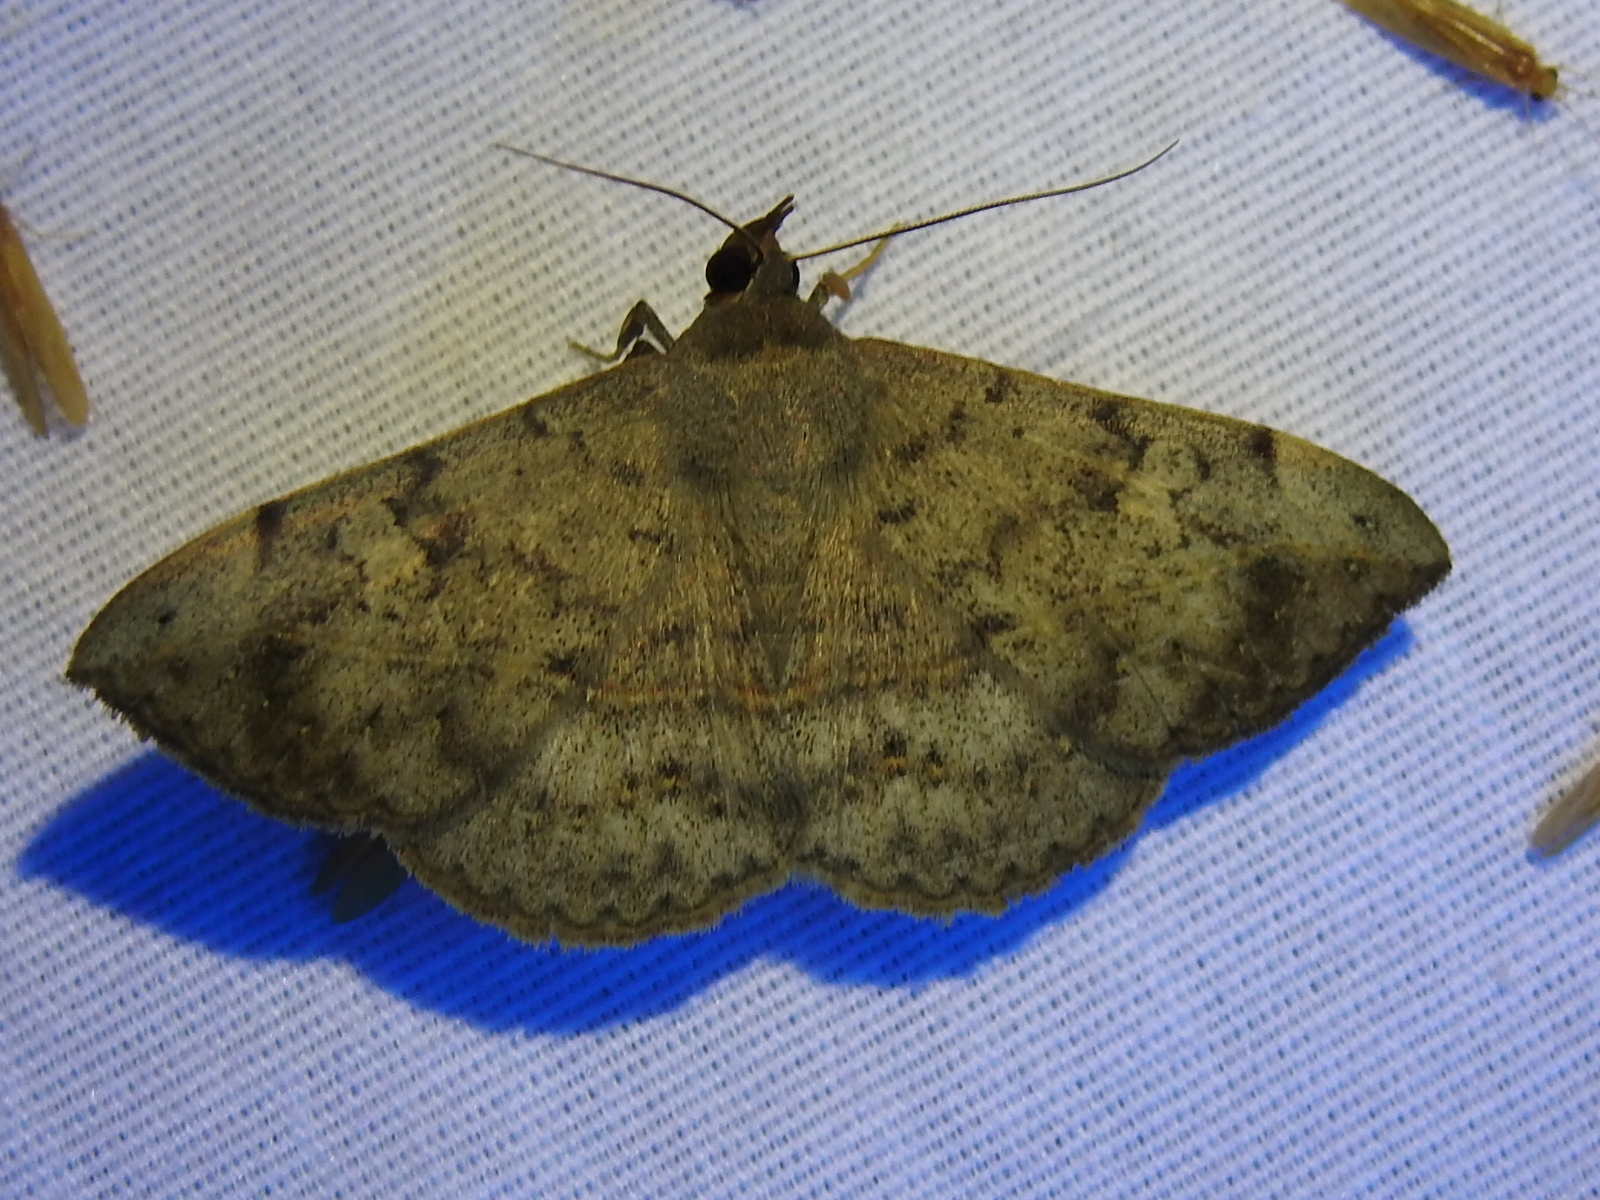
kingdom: Animalia
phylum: Arthropoda
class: Insecta
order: Lepidoptera
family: Erebidae
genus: Anticarsia
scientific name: Anticarsia gemmatalis
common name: Cutworm moth
